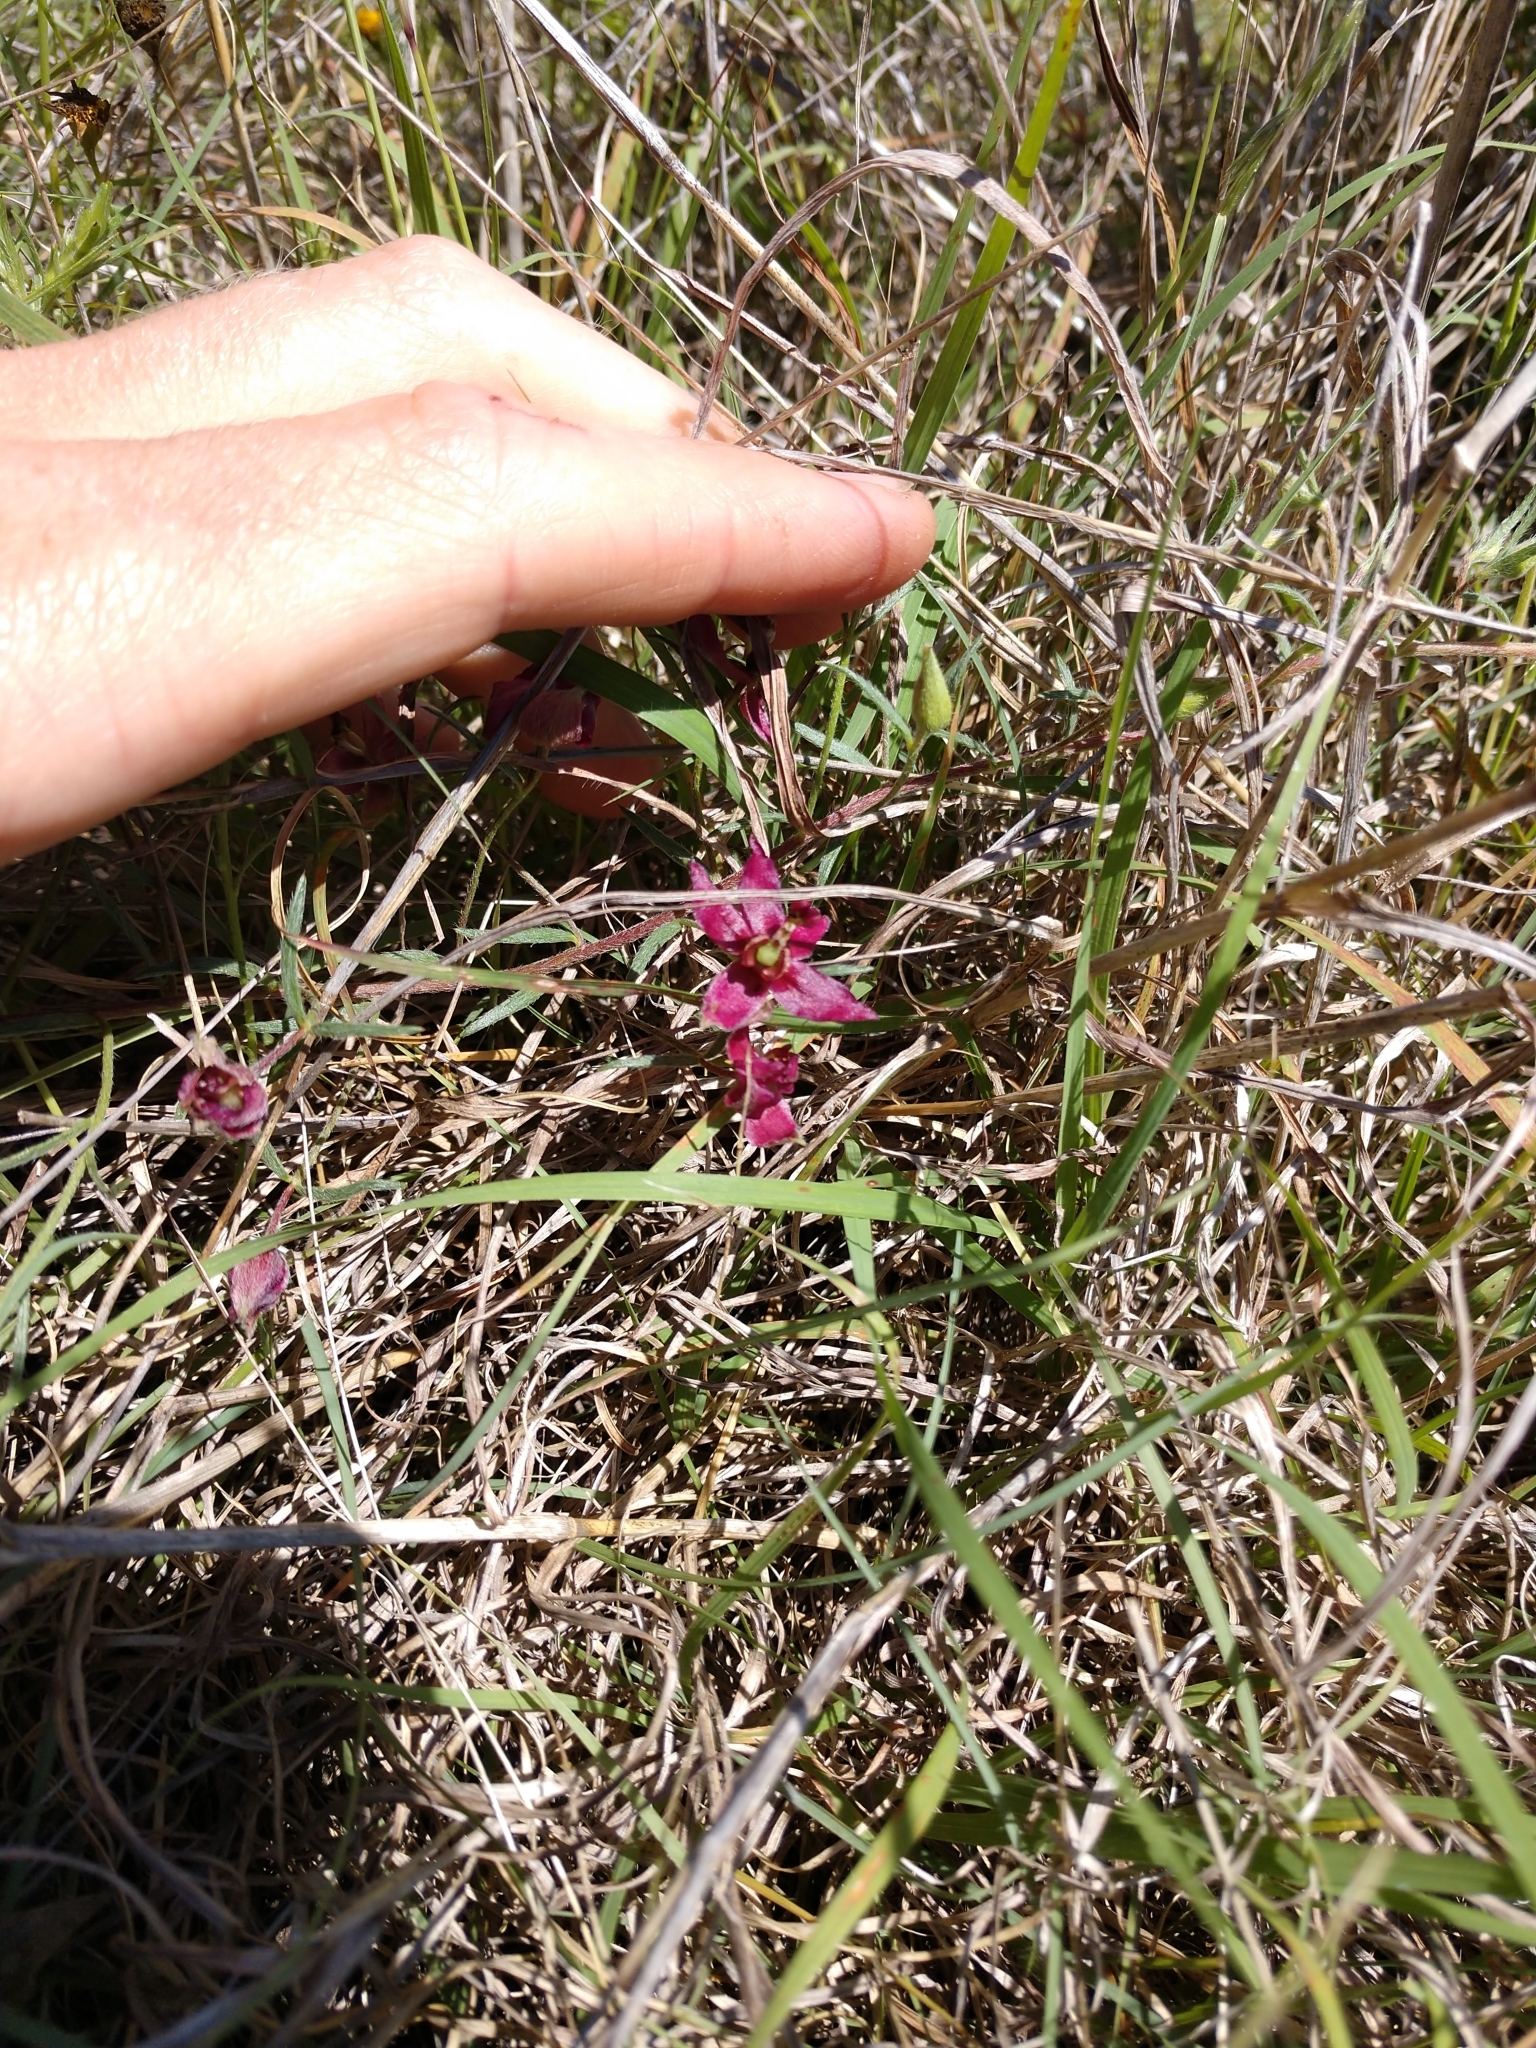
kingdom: Plantae
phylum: Tracheophyta
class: Magnoliopsida
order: Zygophyllales
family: Krameriaceae
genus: Krameria
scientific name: Krameria lanceolata
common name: Ratany
